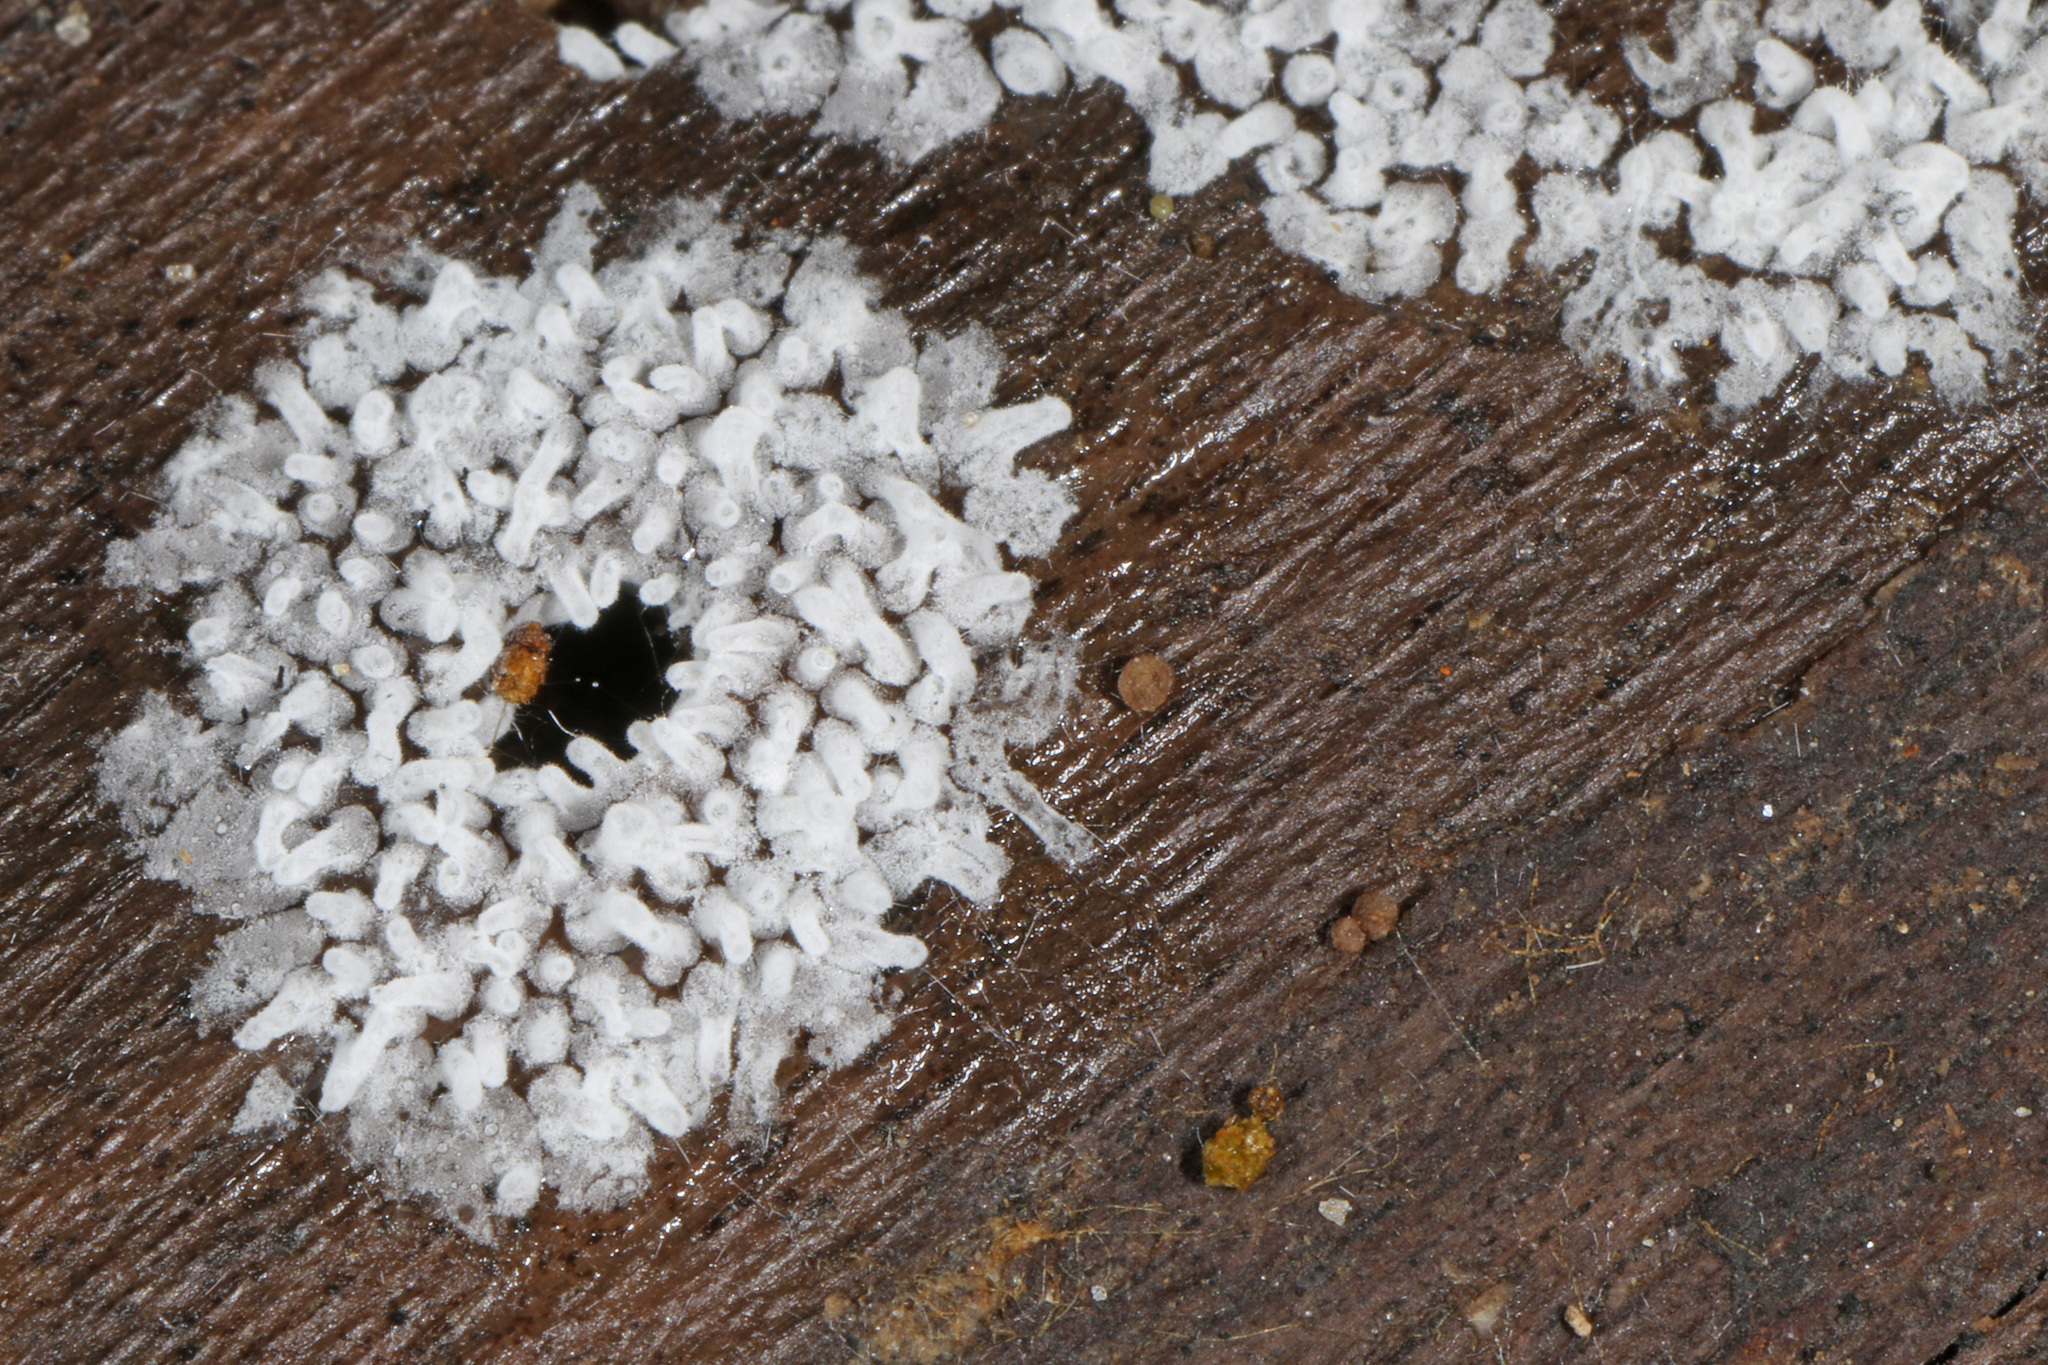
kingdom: Protozoa
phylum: Mycetozoa
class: Protosteliomycetes
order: Ceratiomyxales
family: Ceratiomyxaceae
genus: Ceratiomyxa
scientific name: Ceratiomyxa fruticulosa
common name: Honeycomb coral slime mold
